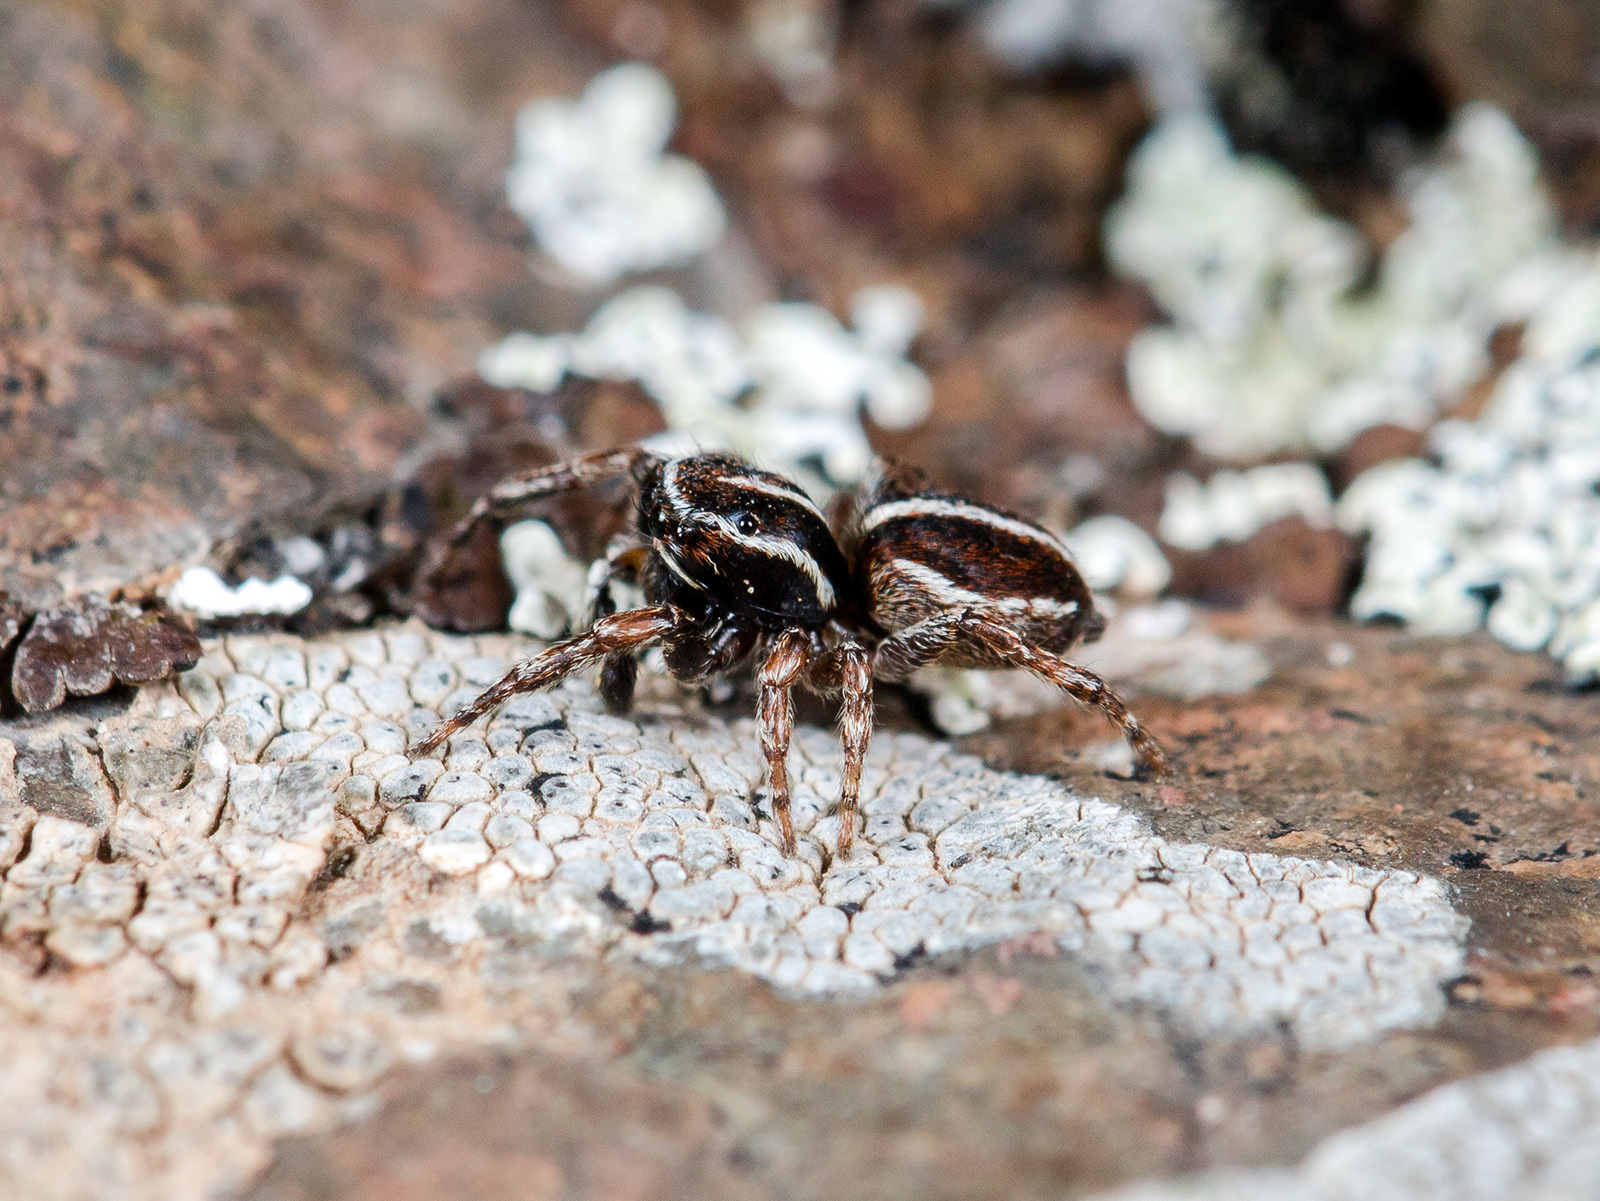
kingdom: Animalia
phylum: Arthropoda
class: Arachnida
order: Araneae
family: Salticidae
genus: Attulus
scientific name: Attulus monstrabilis
